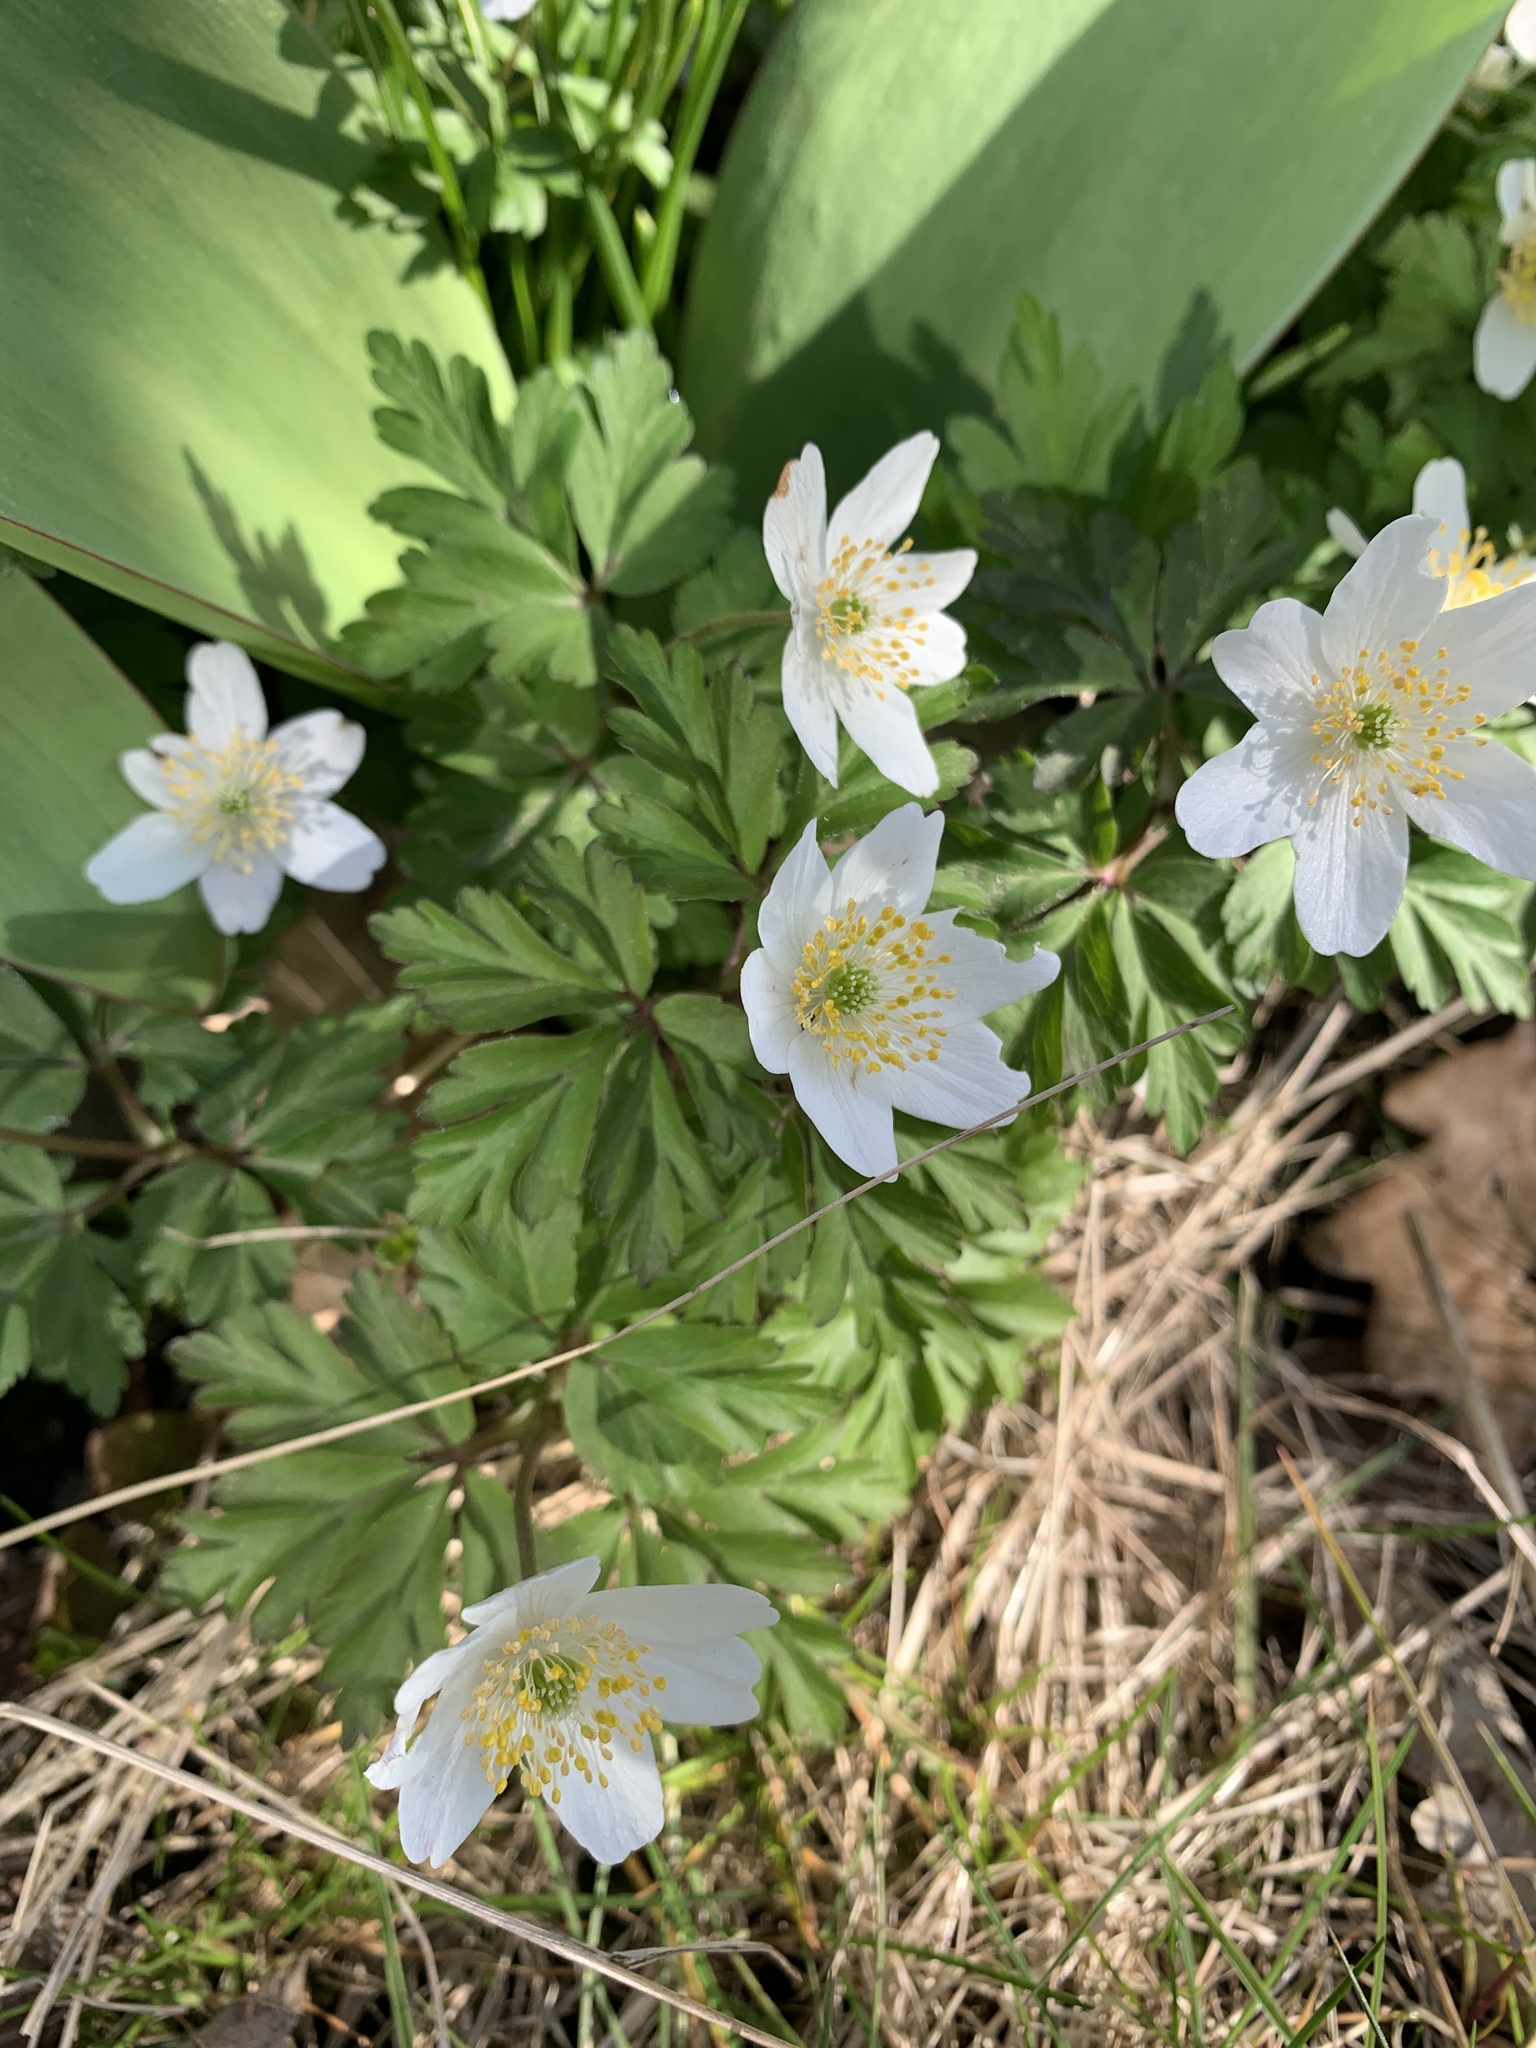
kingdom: Plantae
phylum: Tracheophyta
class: Magnoliopsida
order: Ranunculales
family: Ranunculaceae
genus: Anemone
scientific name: Anemone nemorosa
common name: Wood anemone
